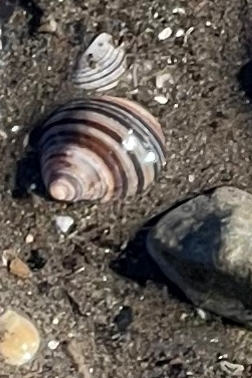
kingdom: Animalia
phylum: Mollusca
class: Gastropoda
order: Littorinimorpha
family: Littorinidae
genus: Littorina
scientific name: Littorina littorea
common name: Common periwinkle
